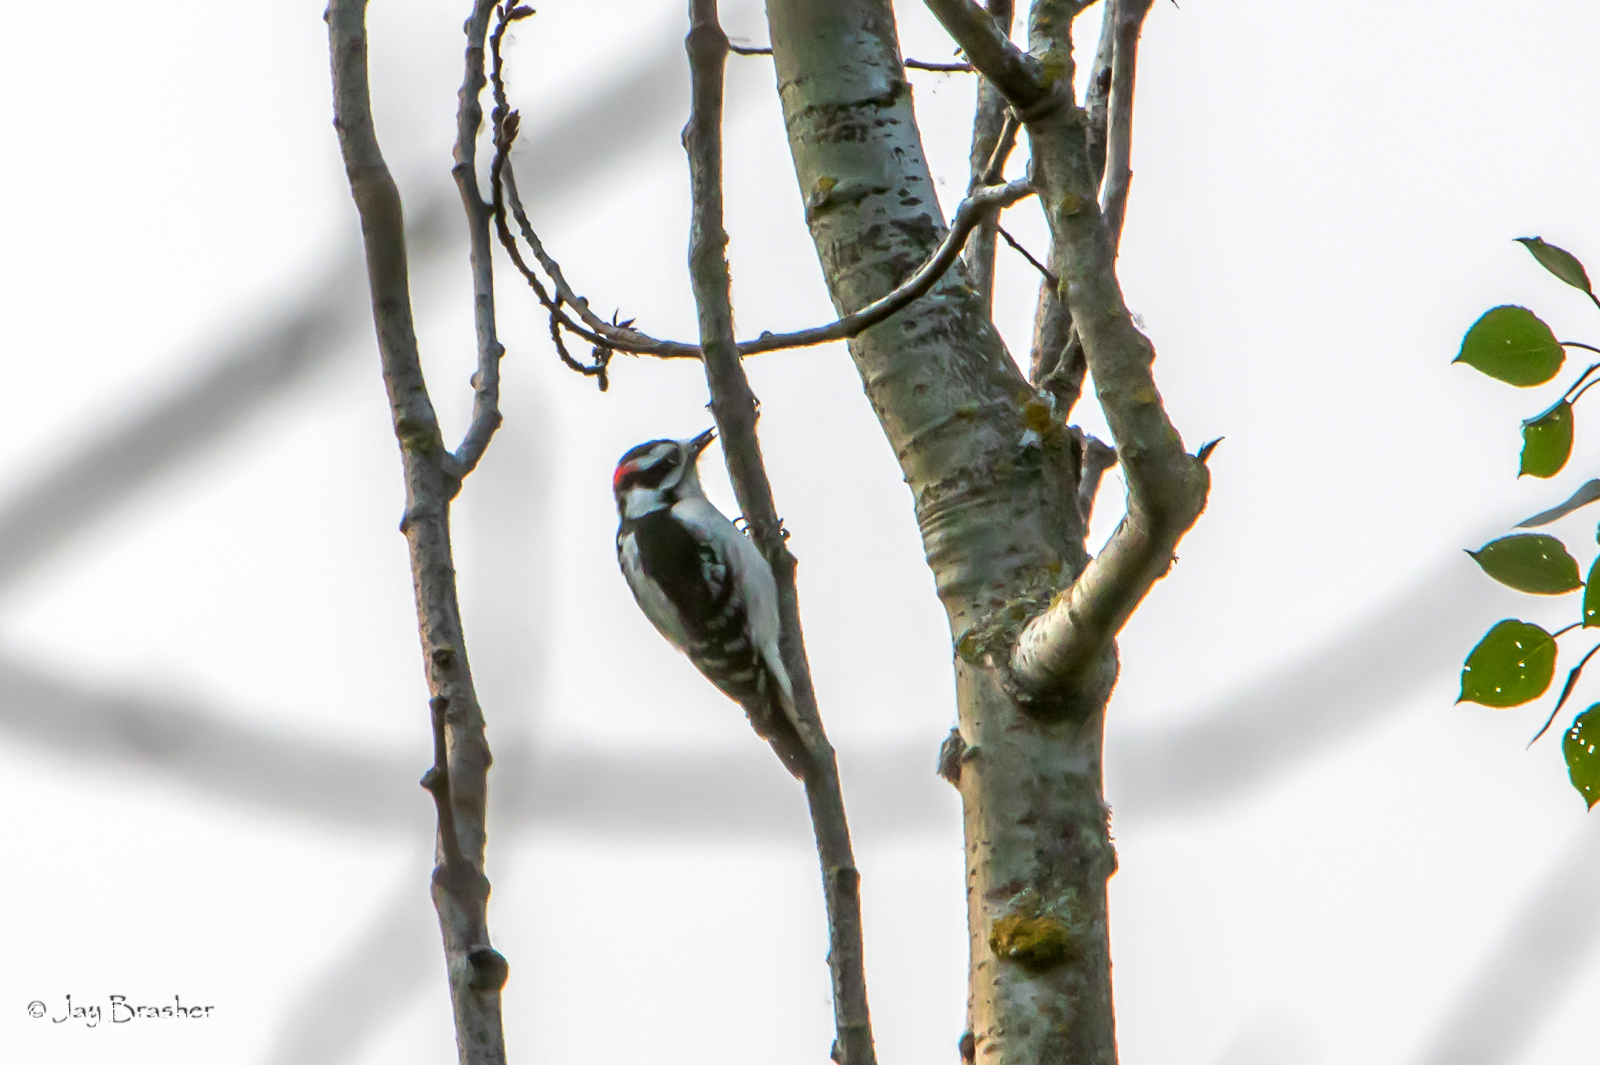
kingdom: Animalia
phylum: Chordata
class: Aves
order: Piciformes
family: Picidae
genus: Dryobates
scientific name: Dryobates pubescens
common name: Downy woodpecker
